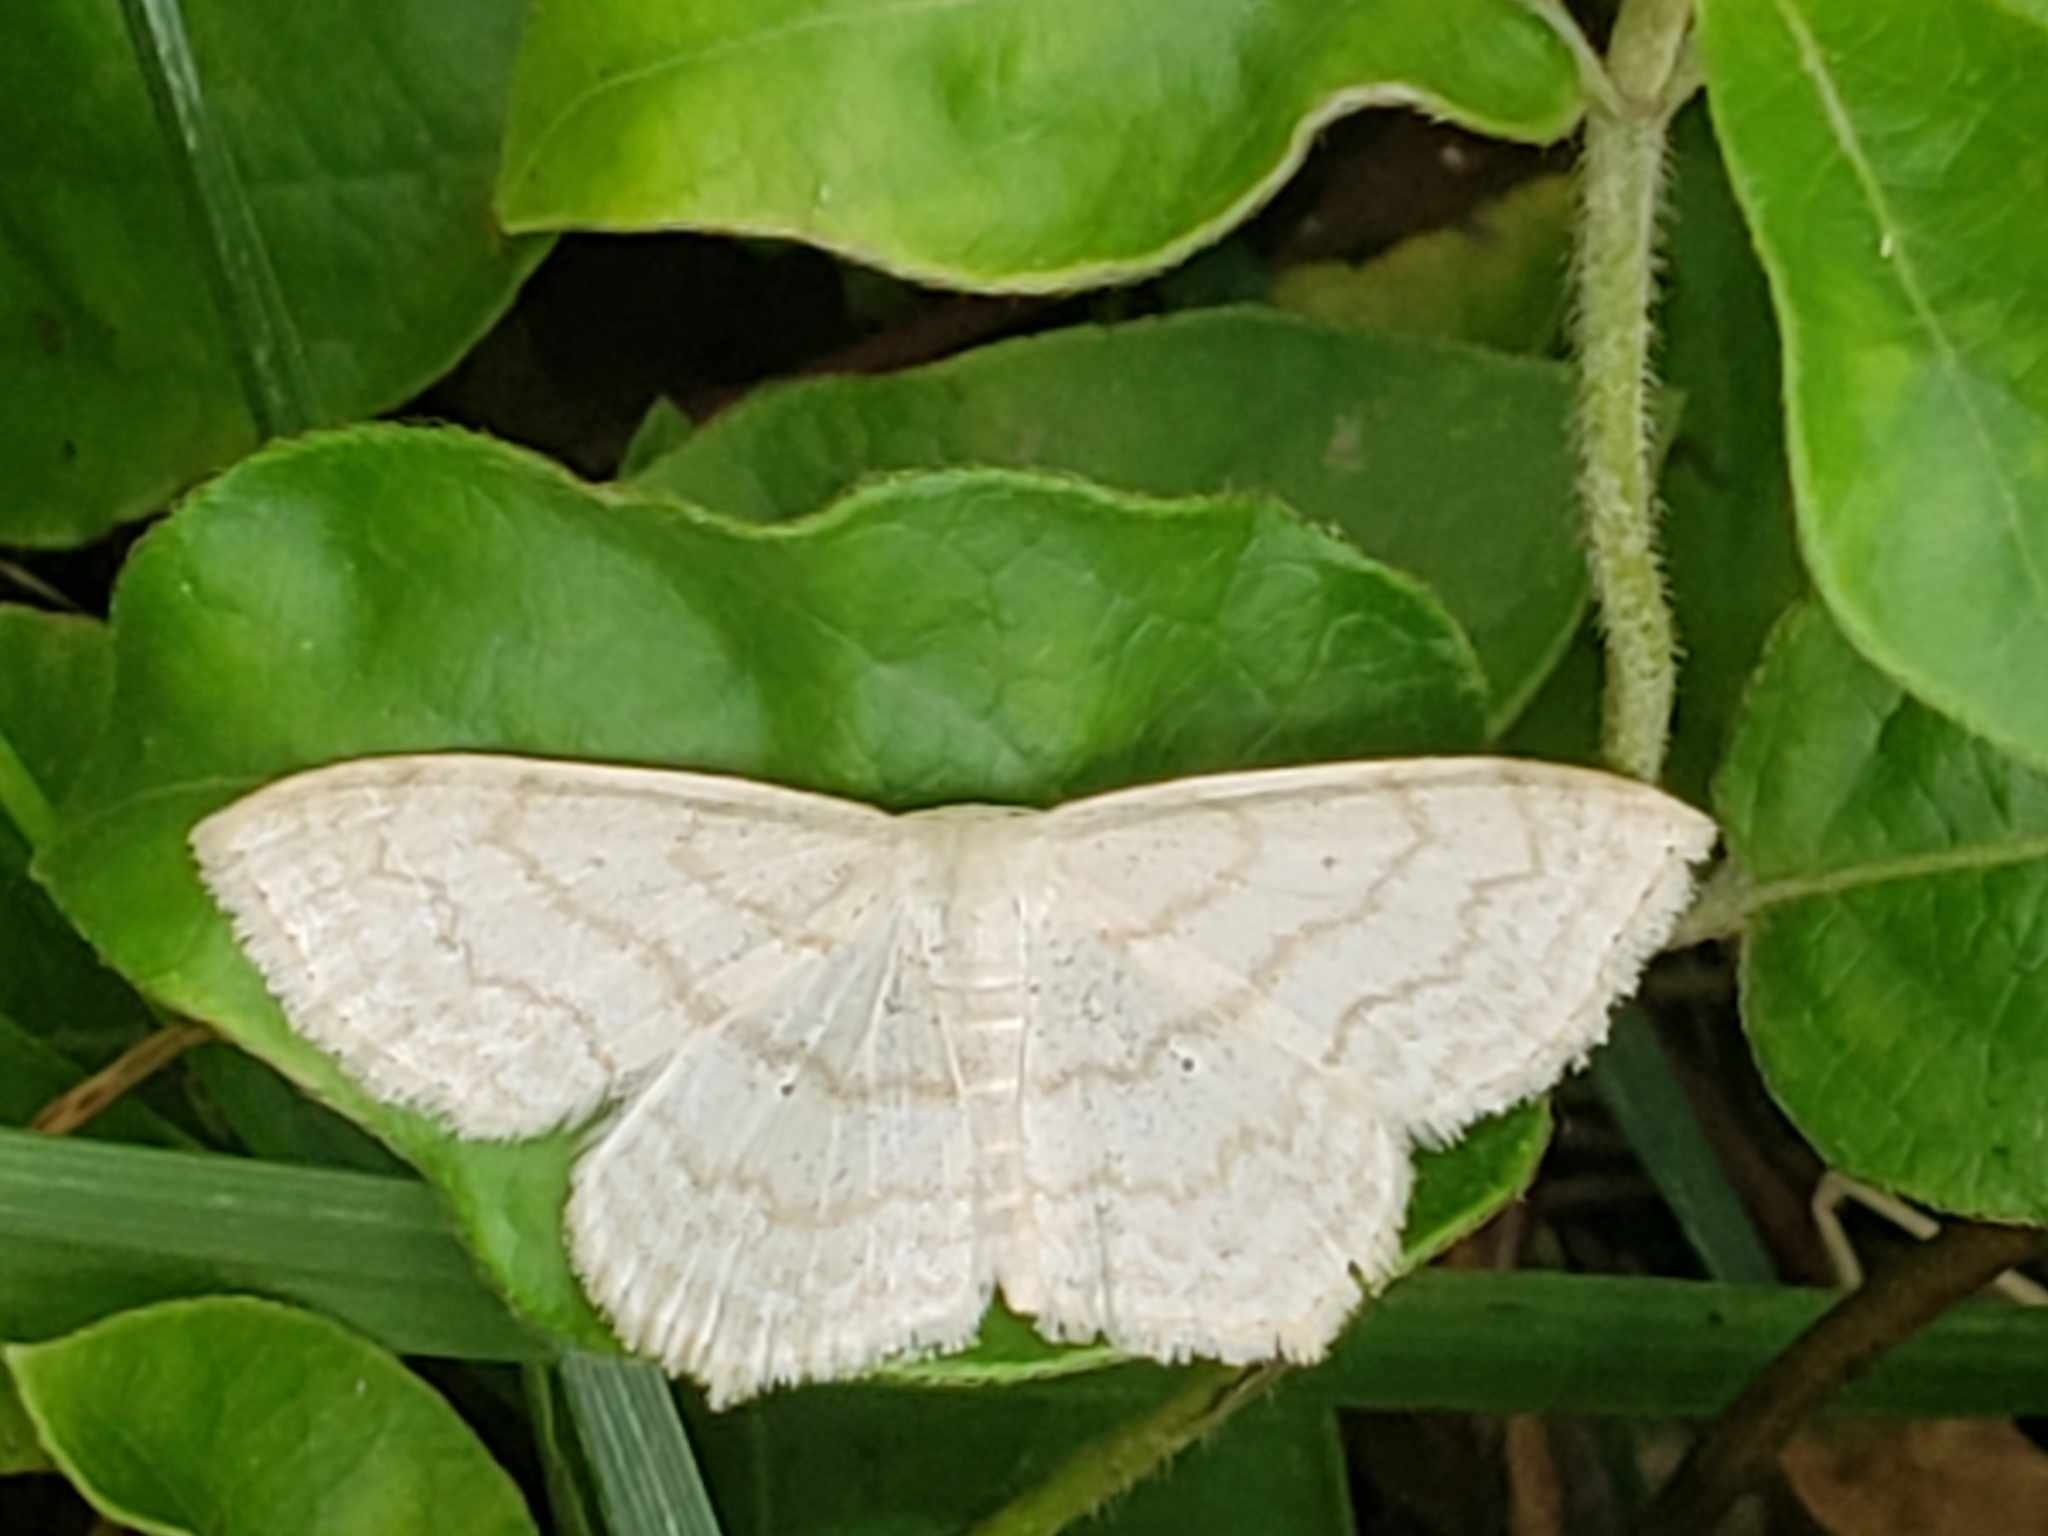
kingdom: Animalia
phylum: Arthropoda
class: Insecta
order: Lepidoptera
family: Geometridae
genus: Scopula
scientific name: Scopula limboundata
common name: Large lace border
